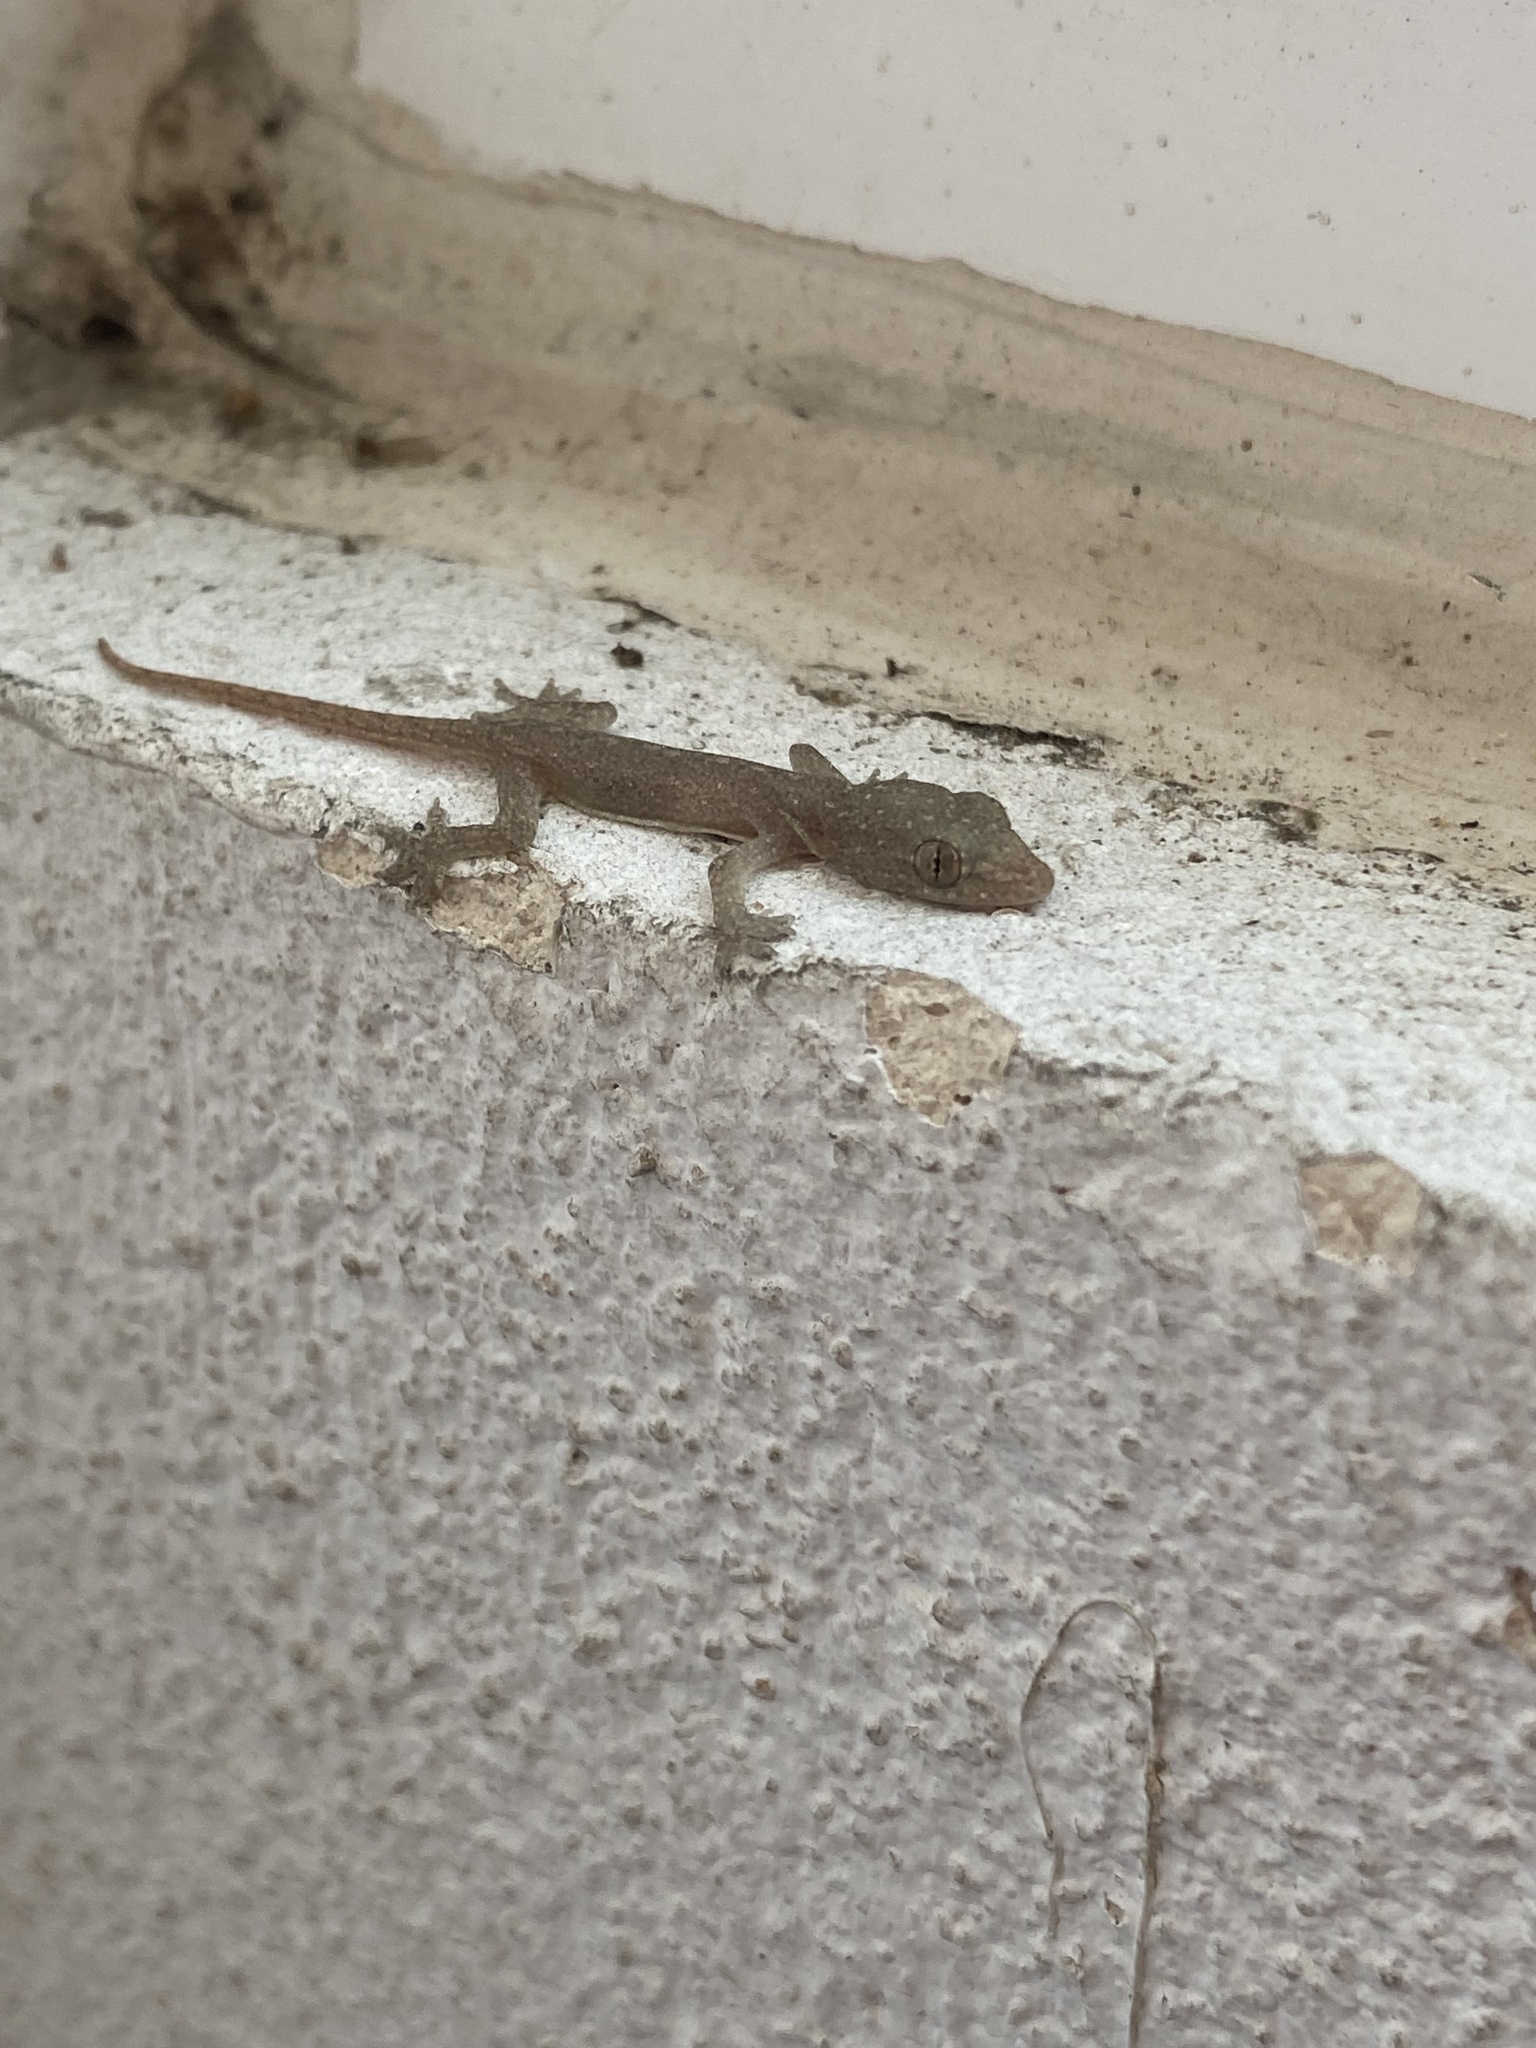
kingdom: Animalia
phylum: Chordata
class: Squamata
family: Gekkonidae
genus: Hemidactylus
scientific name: Hemidactylus frenatus
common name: Common house gecko
